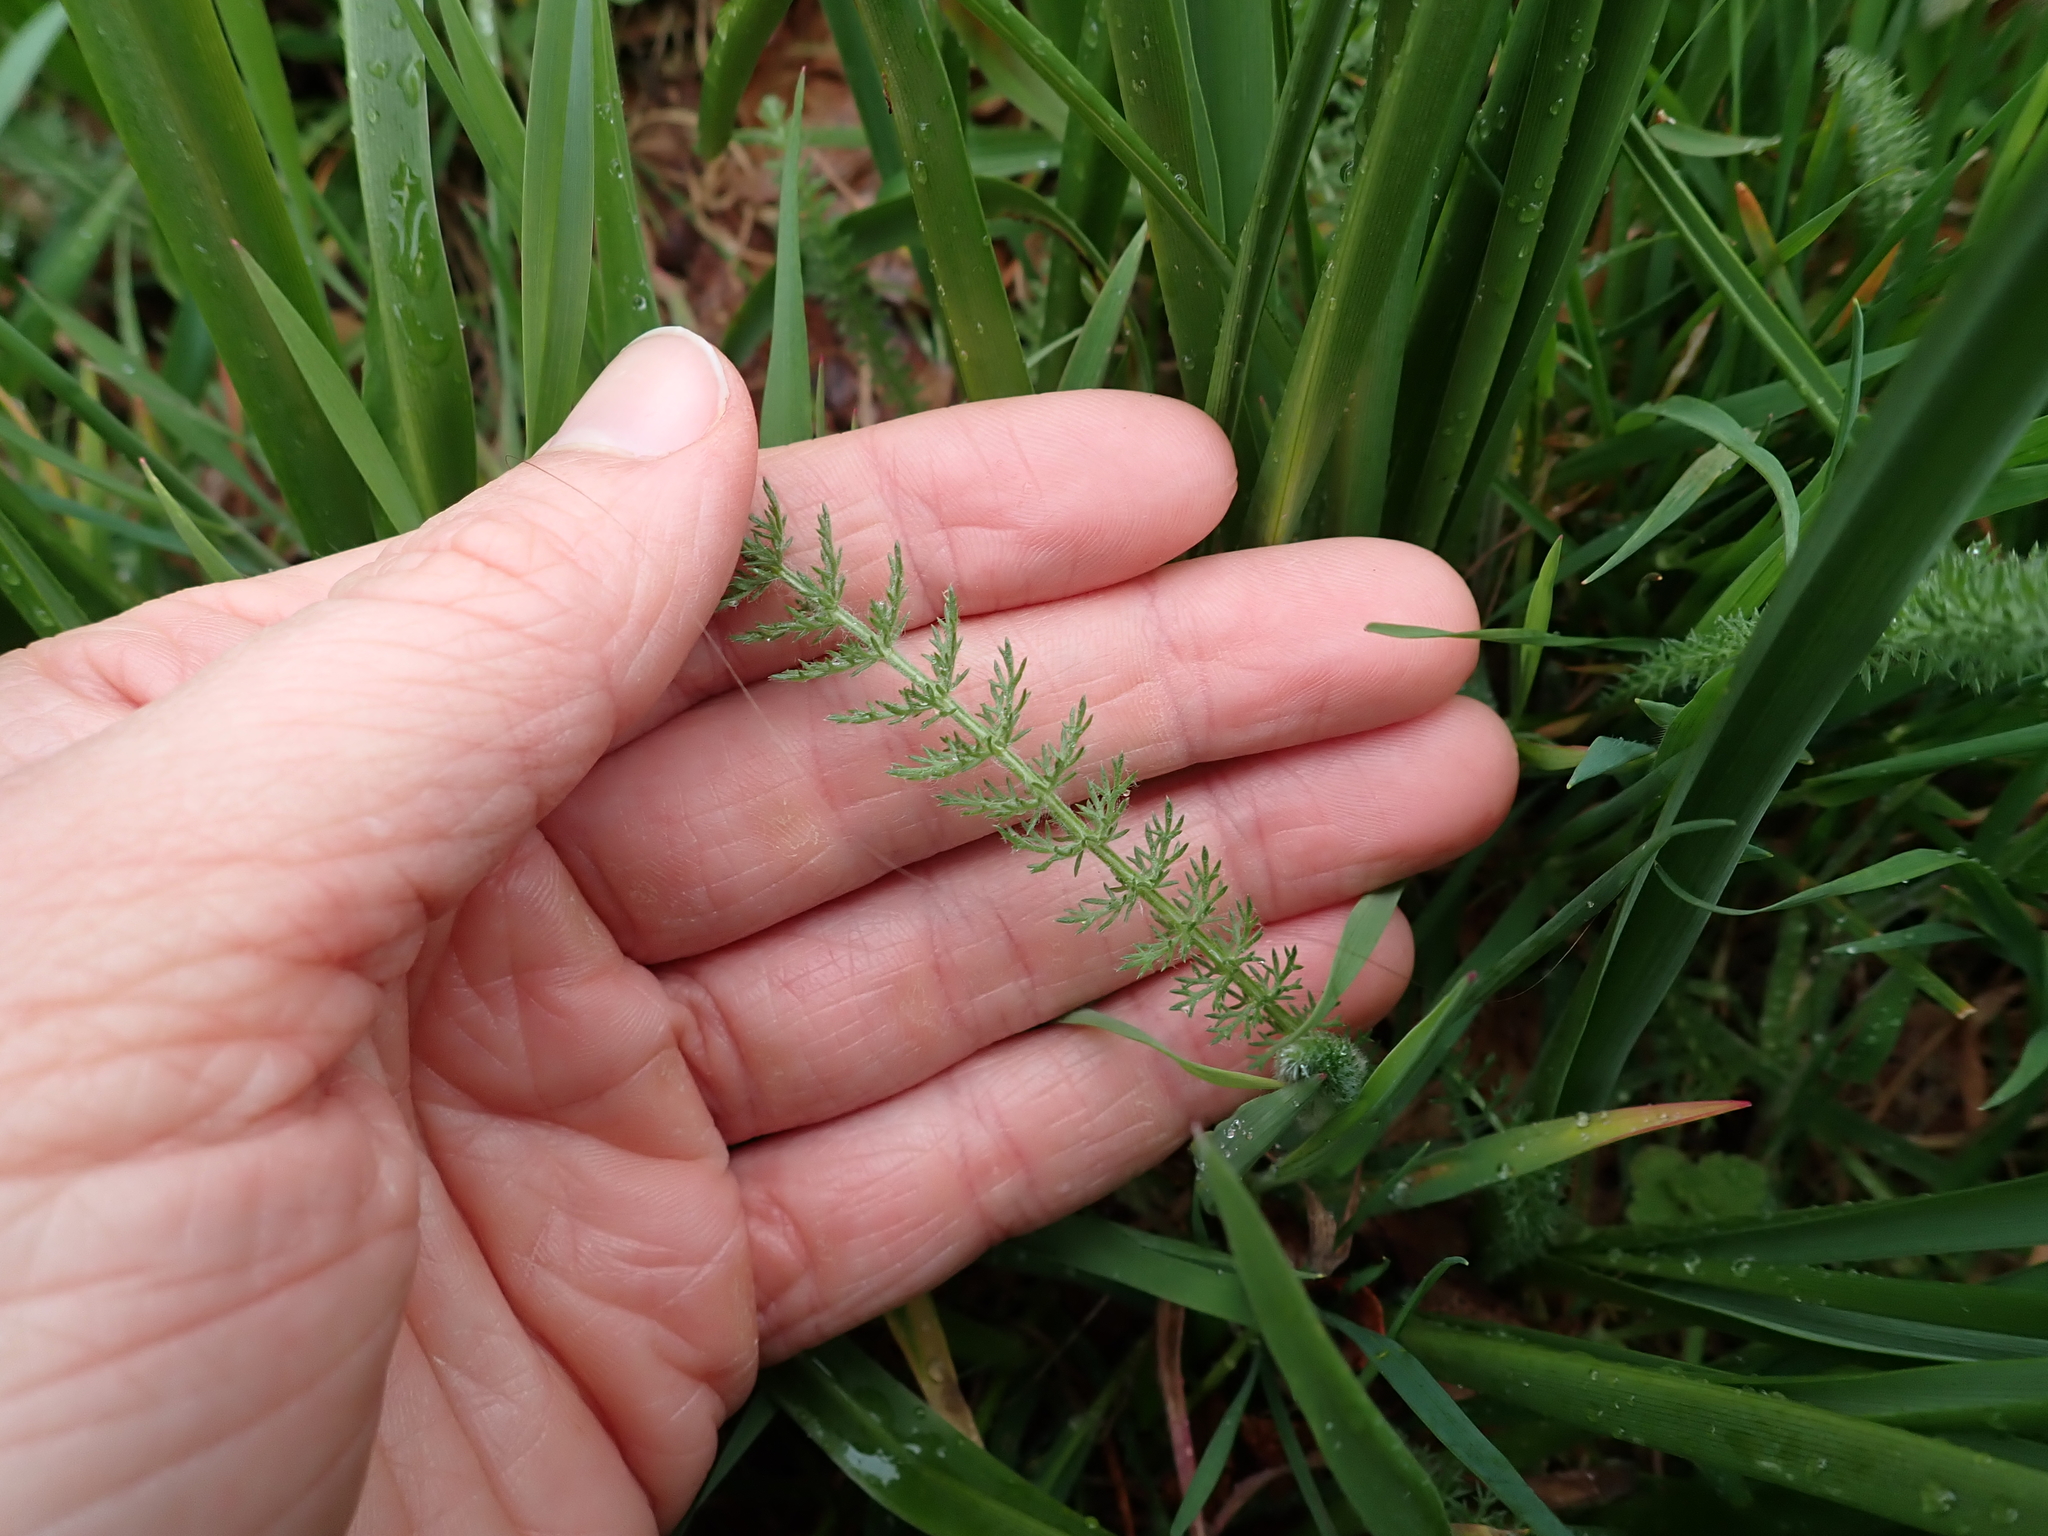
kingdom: Plantae
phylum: Tracheophyta
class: Magnoliopsida
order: Asterales
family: Asteraceae
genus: Achillea
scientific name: Achillea millefolium
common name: Yarrow
